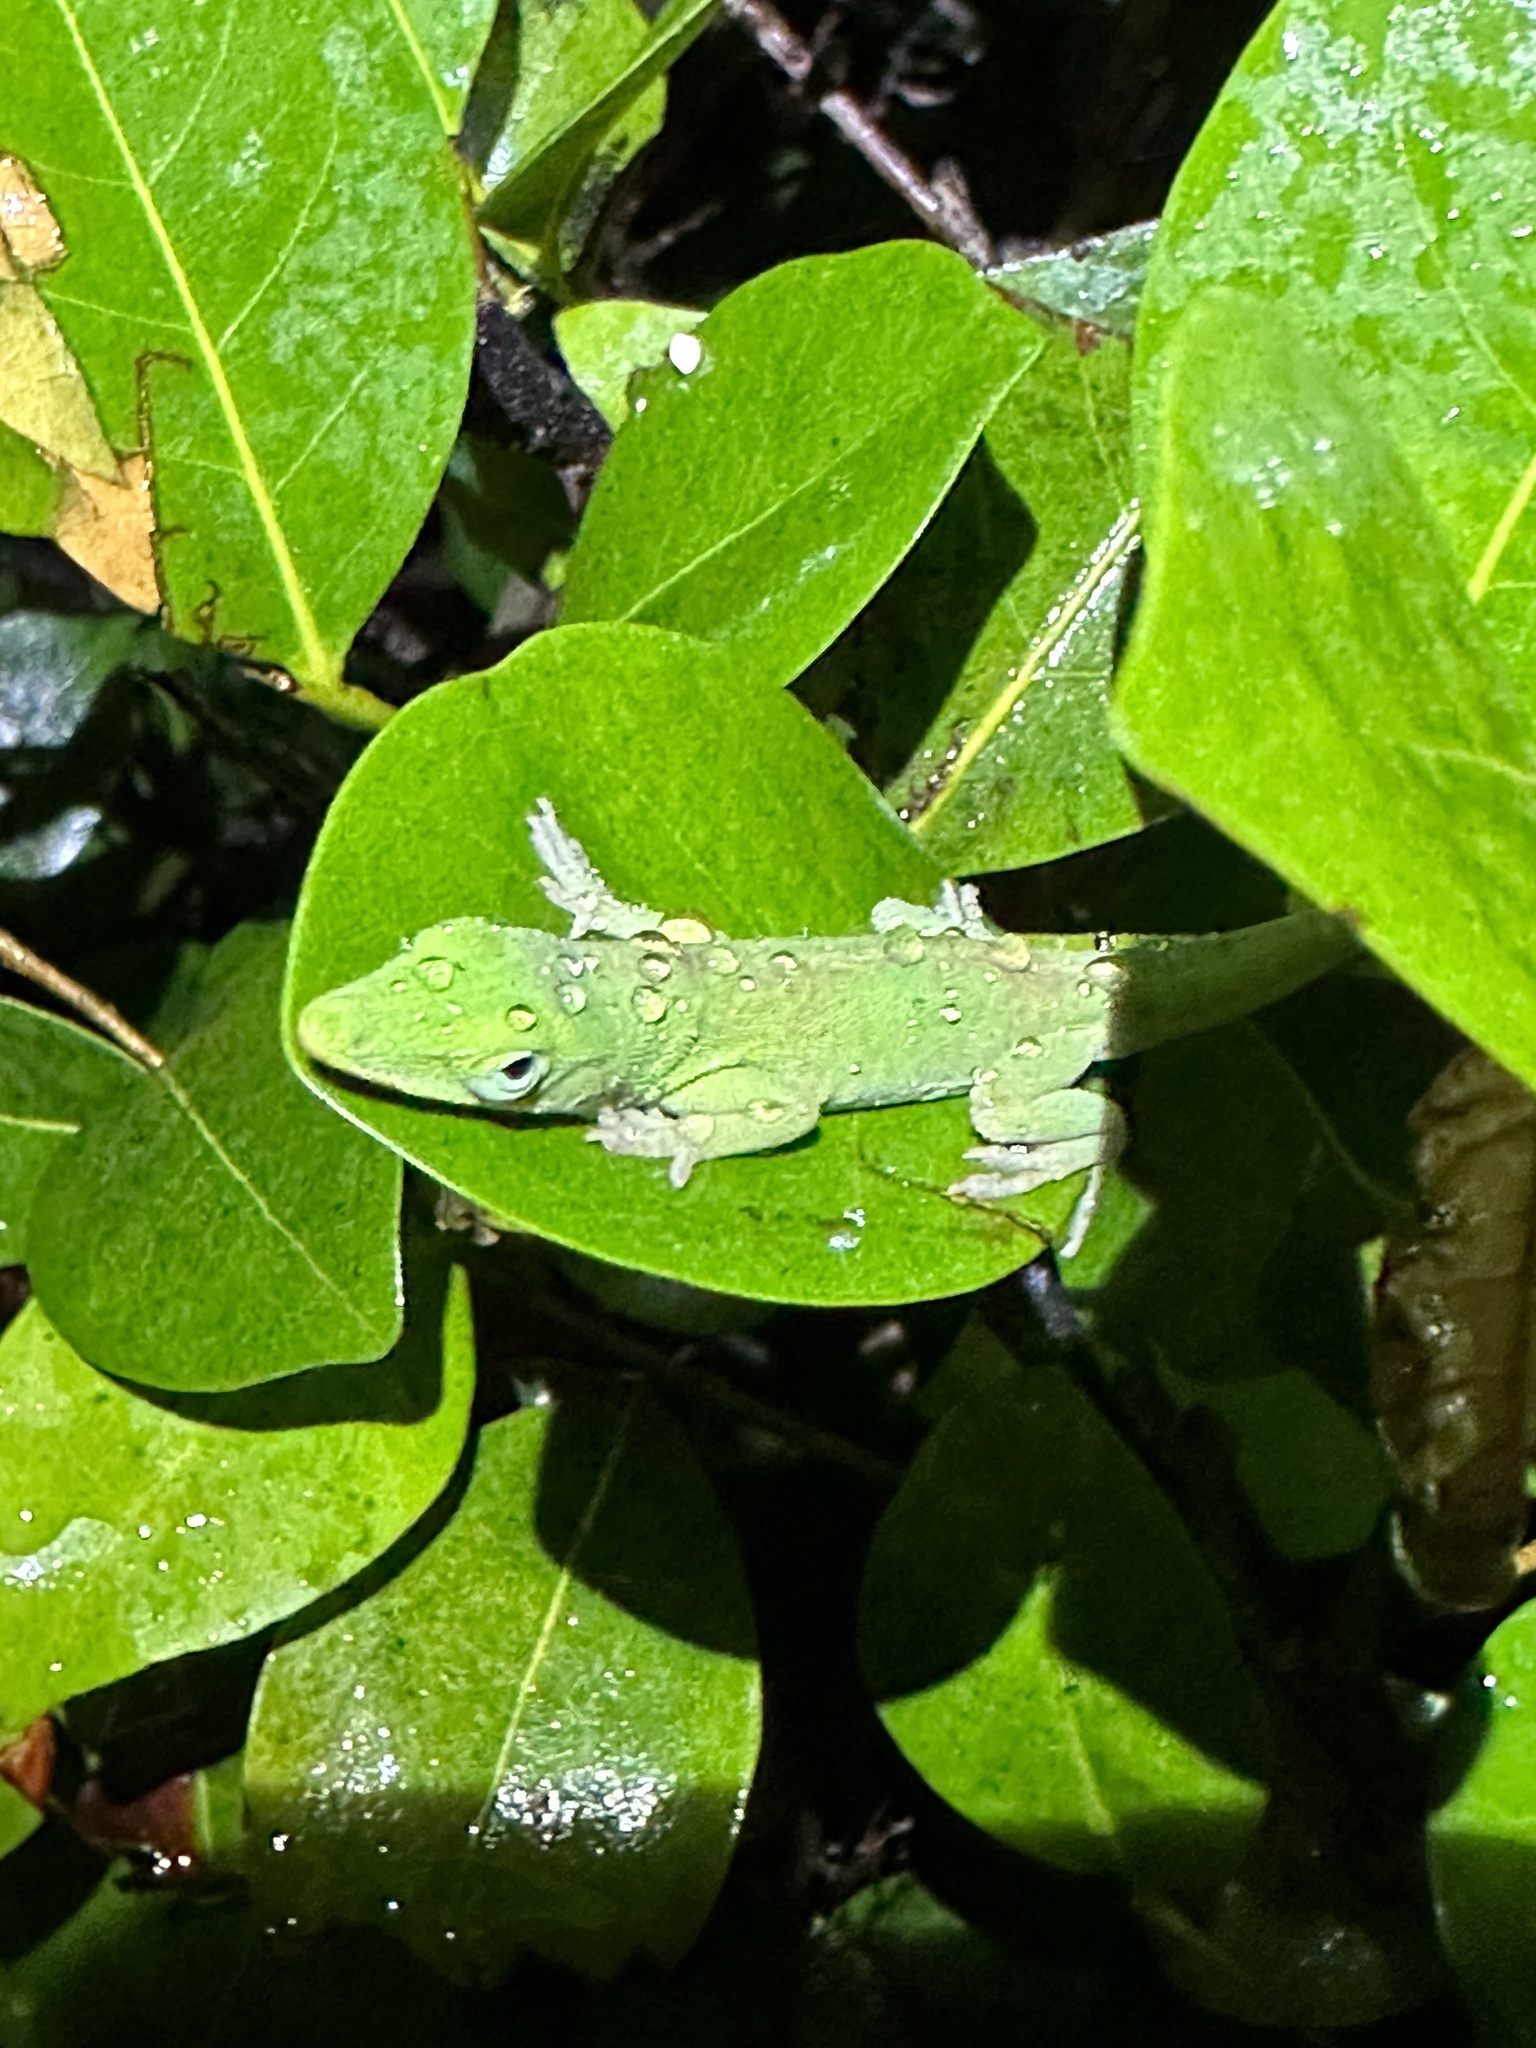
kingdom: Animalia
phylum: Chordata
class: Squamata
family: Dactyloidae
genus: Anolis
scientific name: Anolis carolinensis
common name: Green anole
